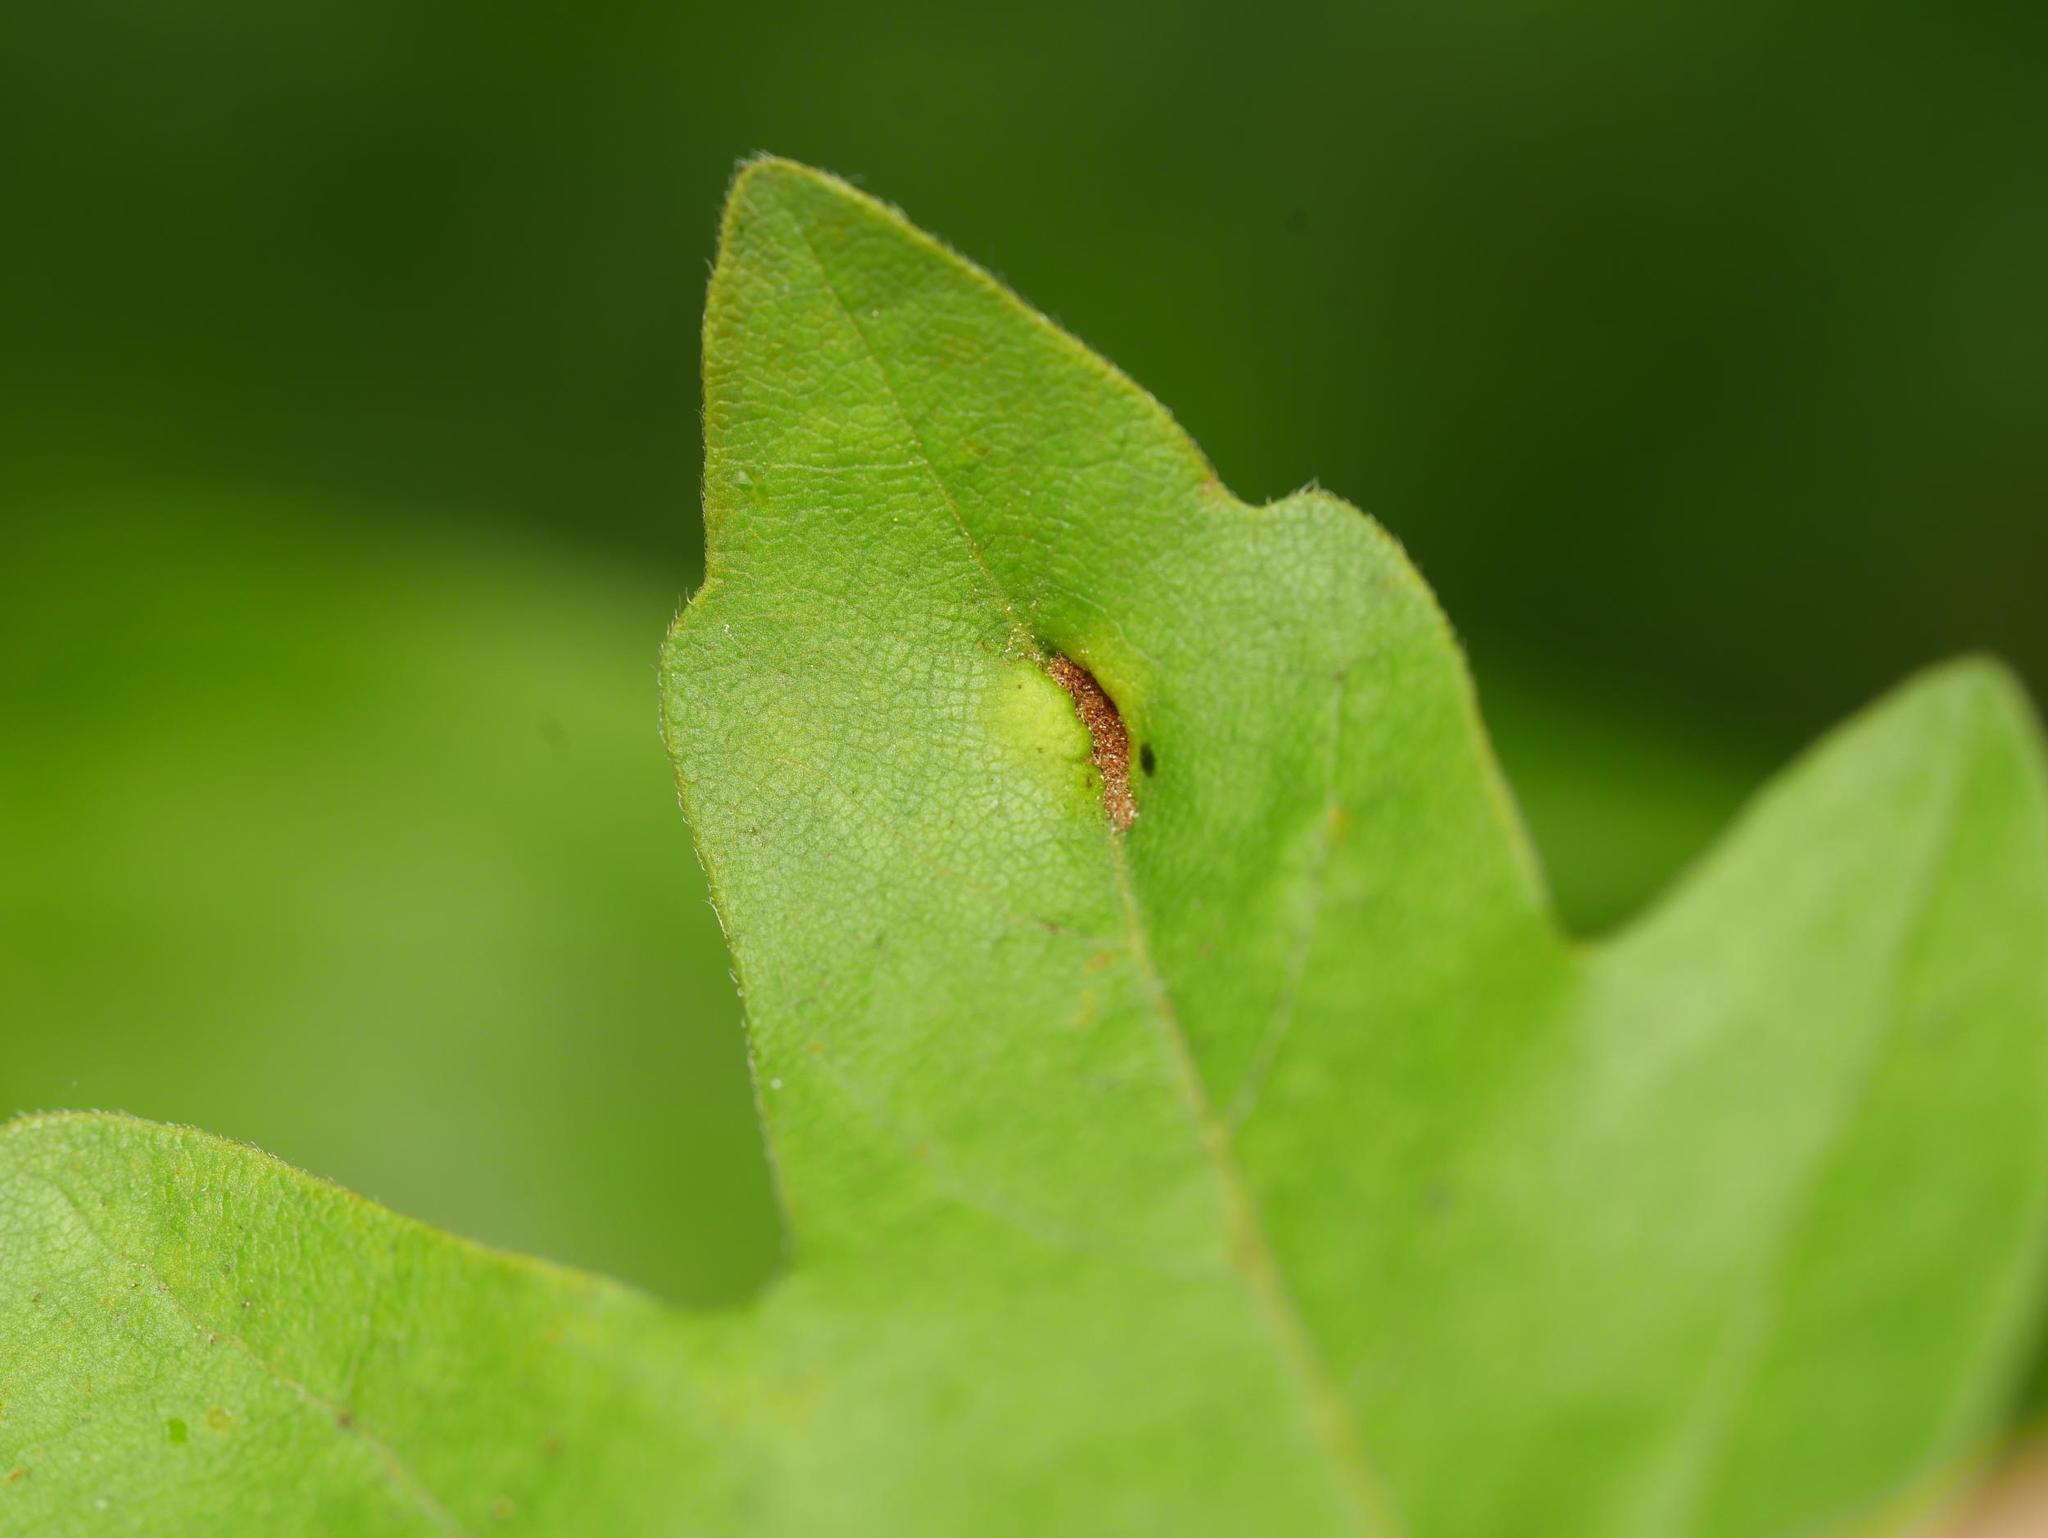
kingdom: Animalia
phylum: Arthropoda
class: Arachnida
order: Trombidiformes
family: Eriophyidae
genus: Aceria
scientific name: Aceria carinifex
